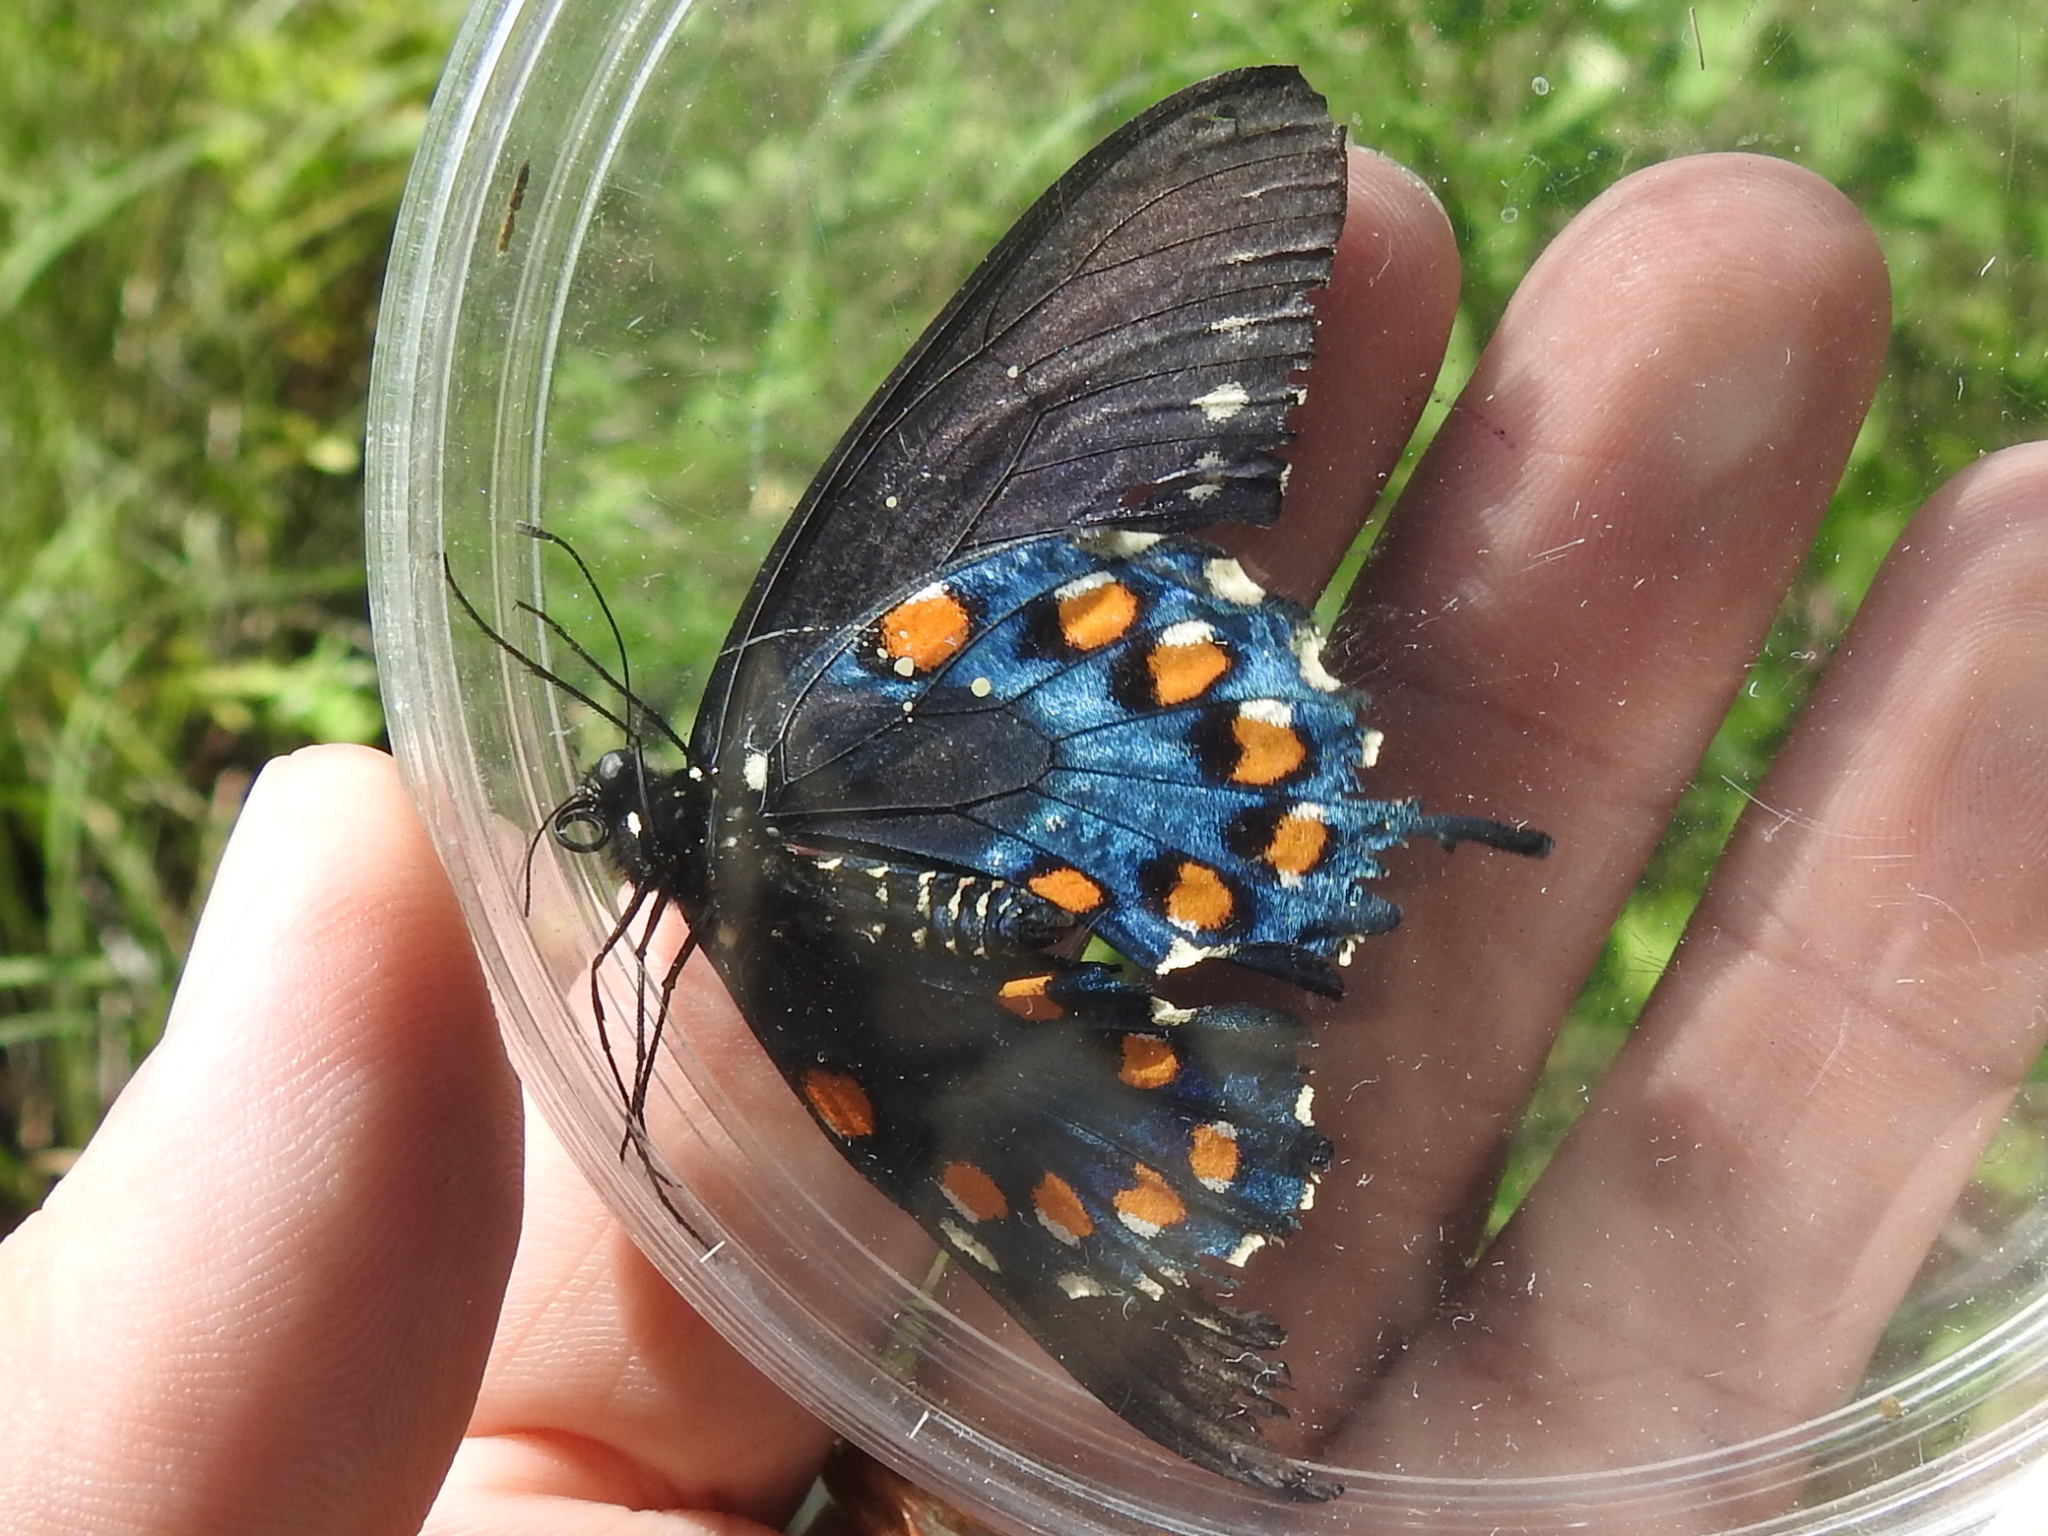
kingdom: Animalia
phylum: Arthropoda
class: Insecta
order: Lepidoptera
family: Papilionidae
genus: Battus
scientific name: Battus philenor
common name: Pipevine swallowtail
